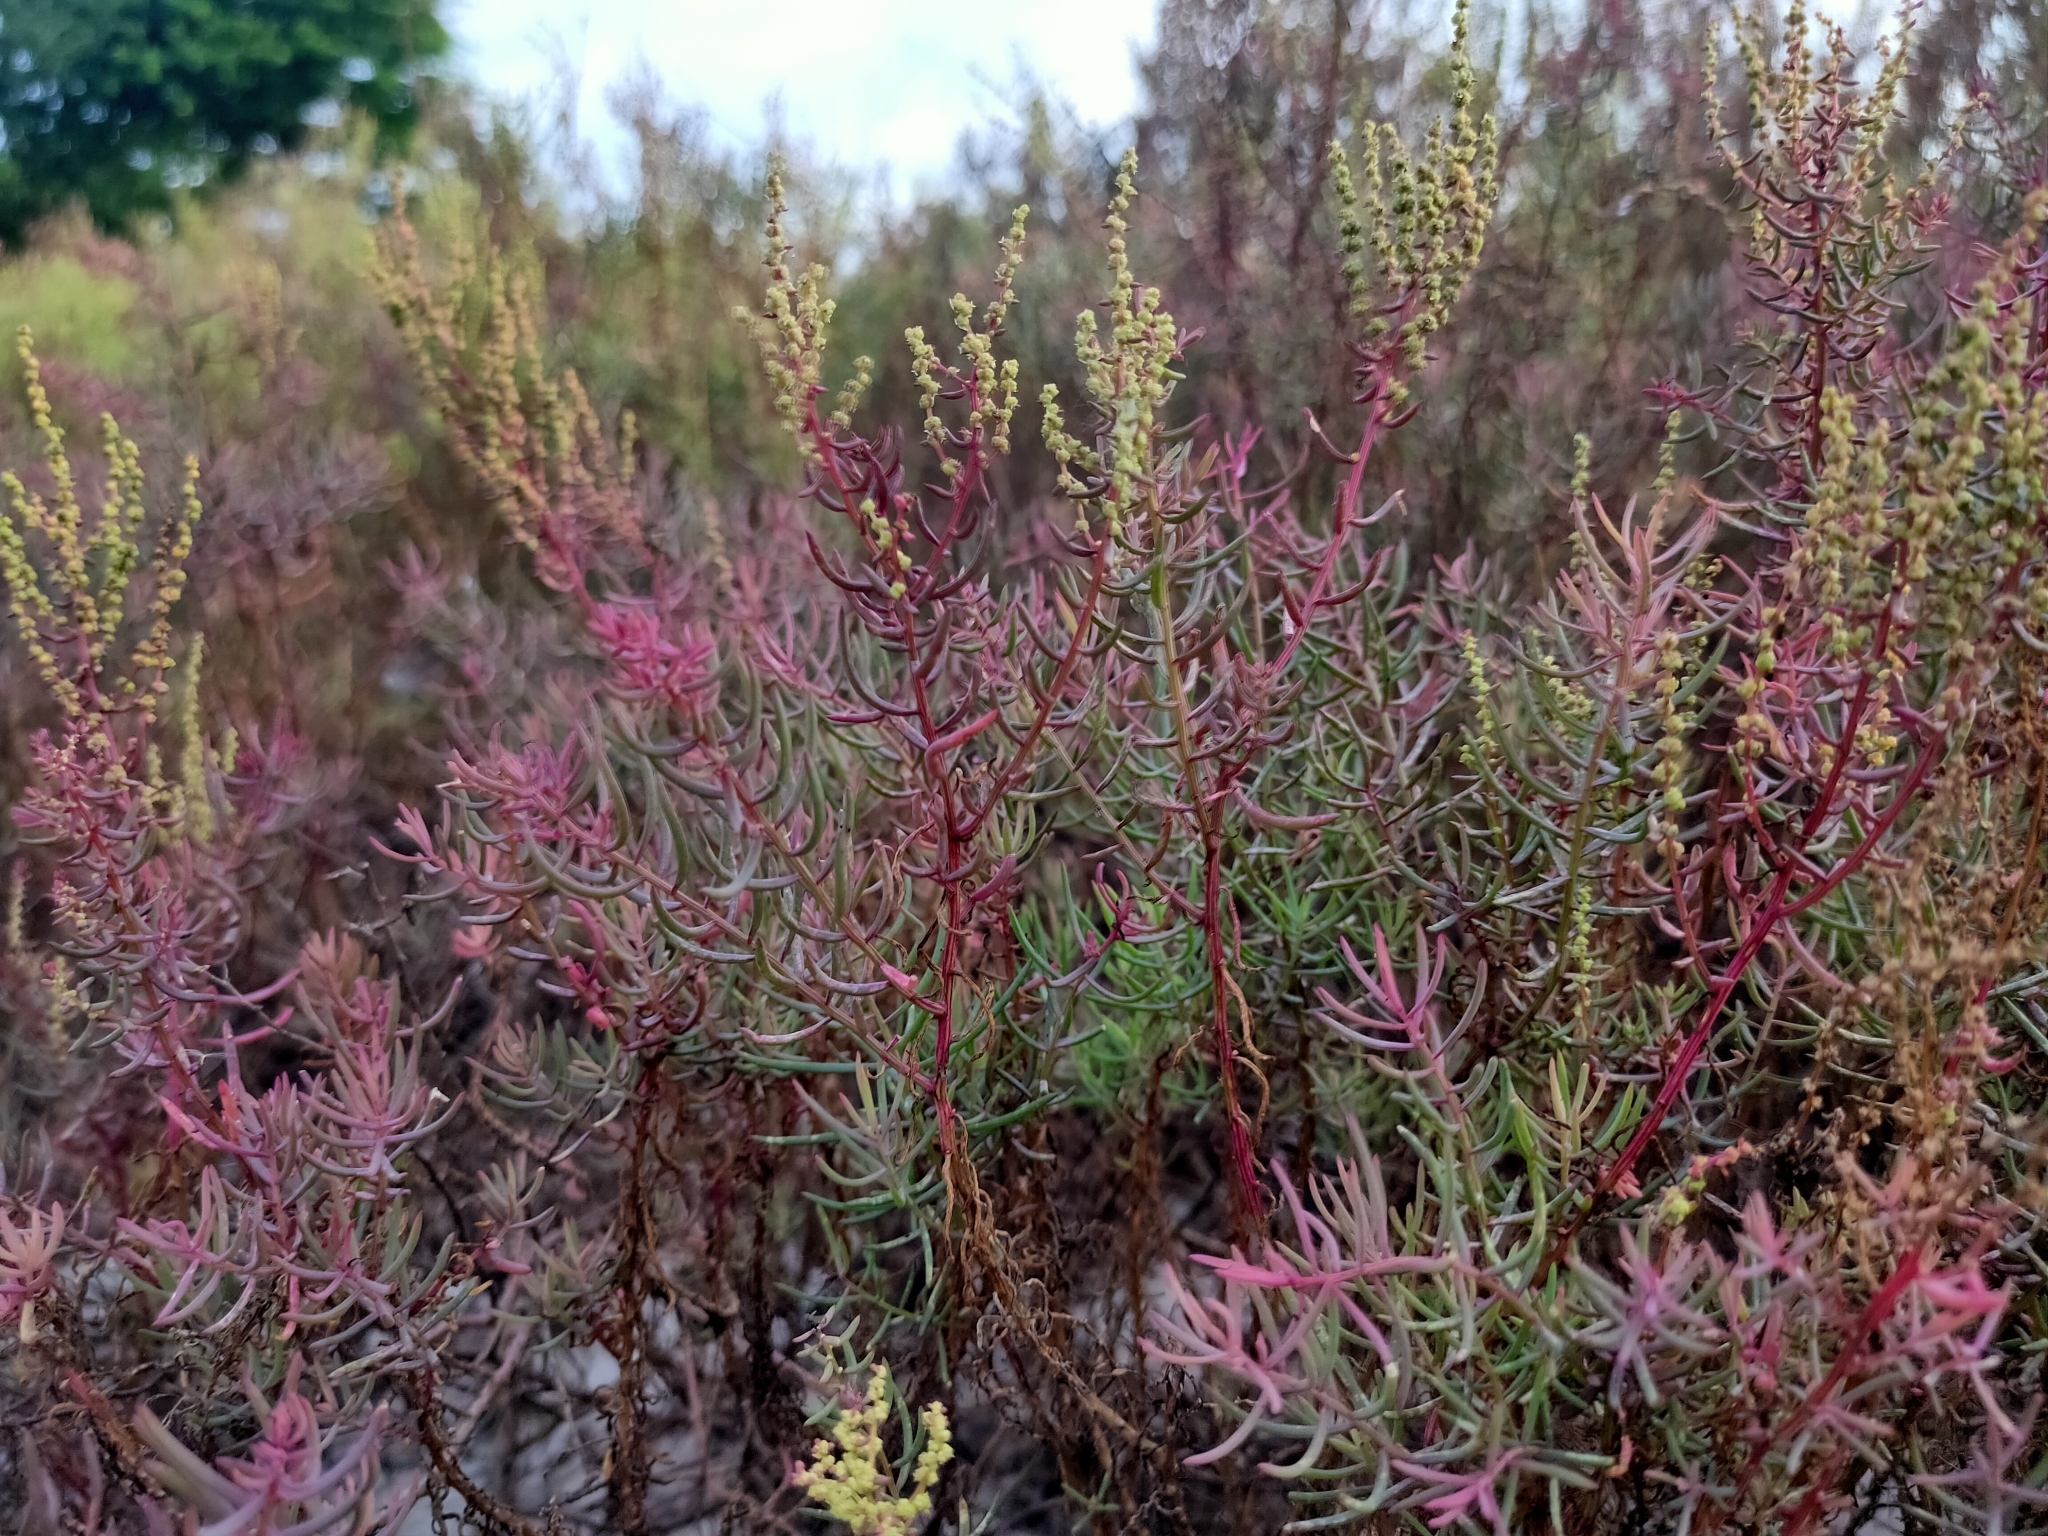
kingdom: Plantae
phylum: Tracheophyta
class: Magnoliopsida
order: Caryophyllales
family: Amaranthaceae
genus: Suaeda
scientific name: Suaeda maritima
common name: Annual sea-blite
